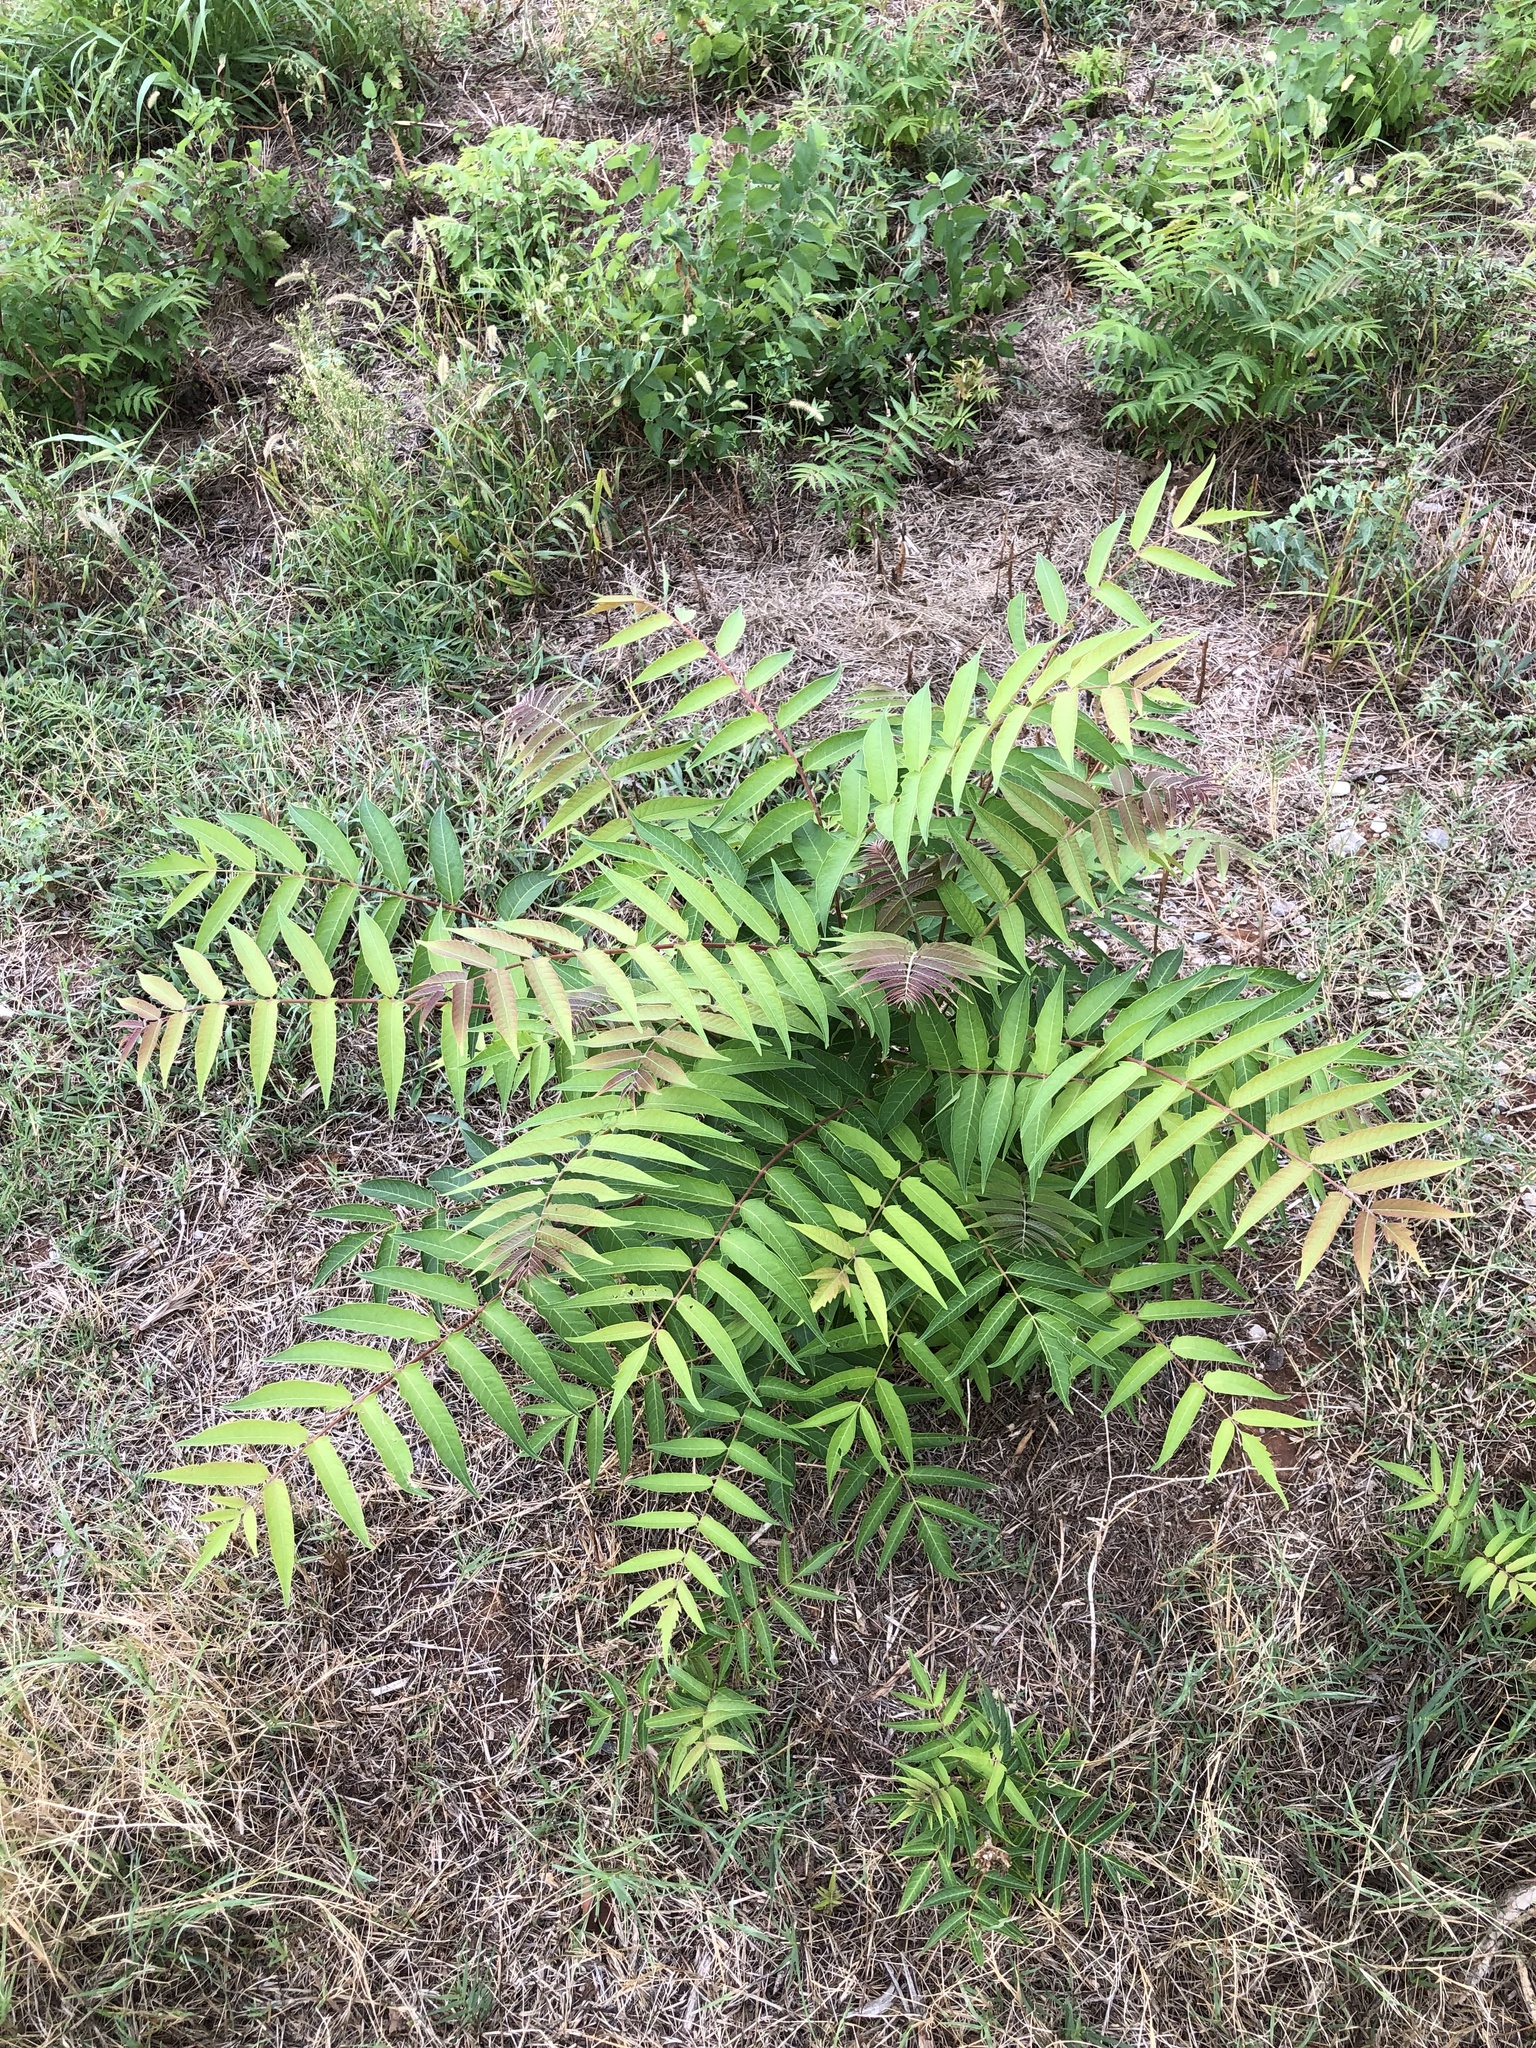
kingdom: Plantae
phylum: Tracheophyta
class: Magnoliopsida
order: Sapindales
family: Simaroubaceae
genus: Ailanthus
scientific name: Ailanthus altissima
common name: Tree-of-heaven
